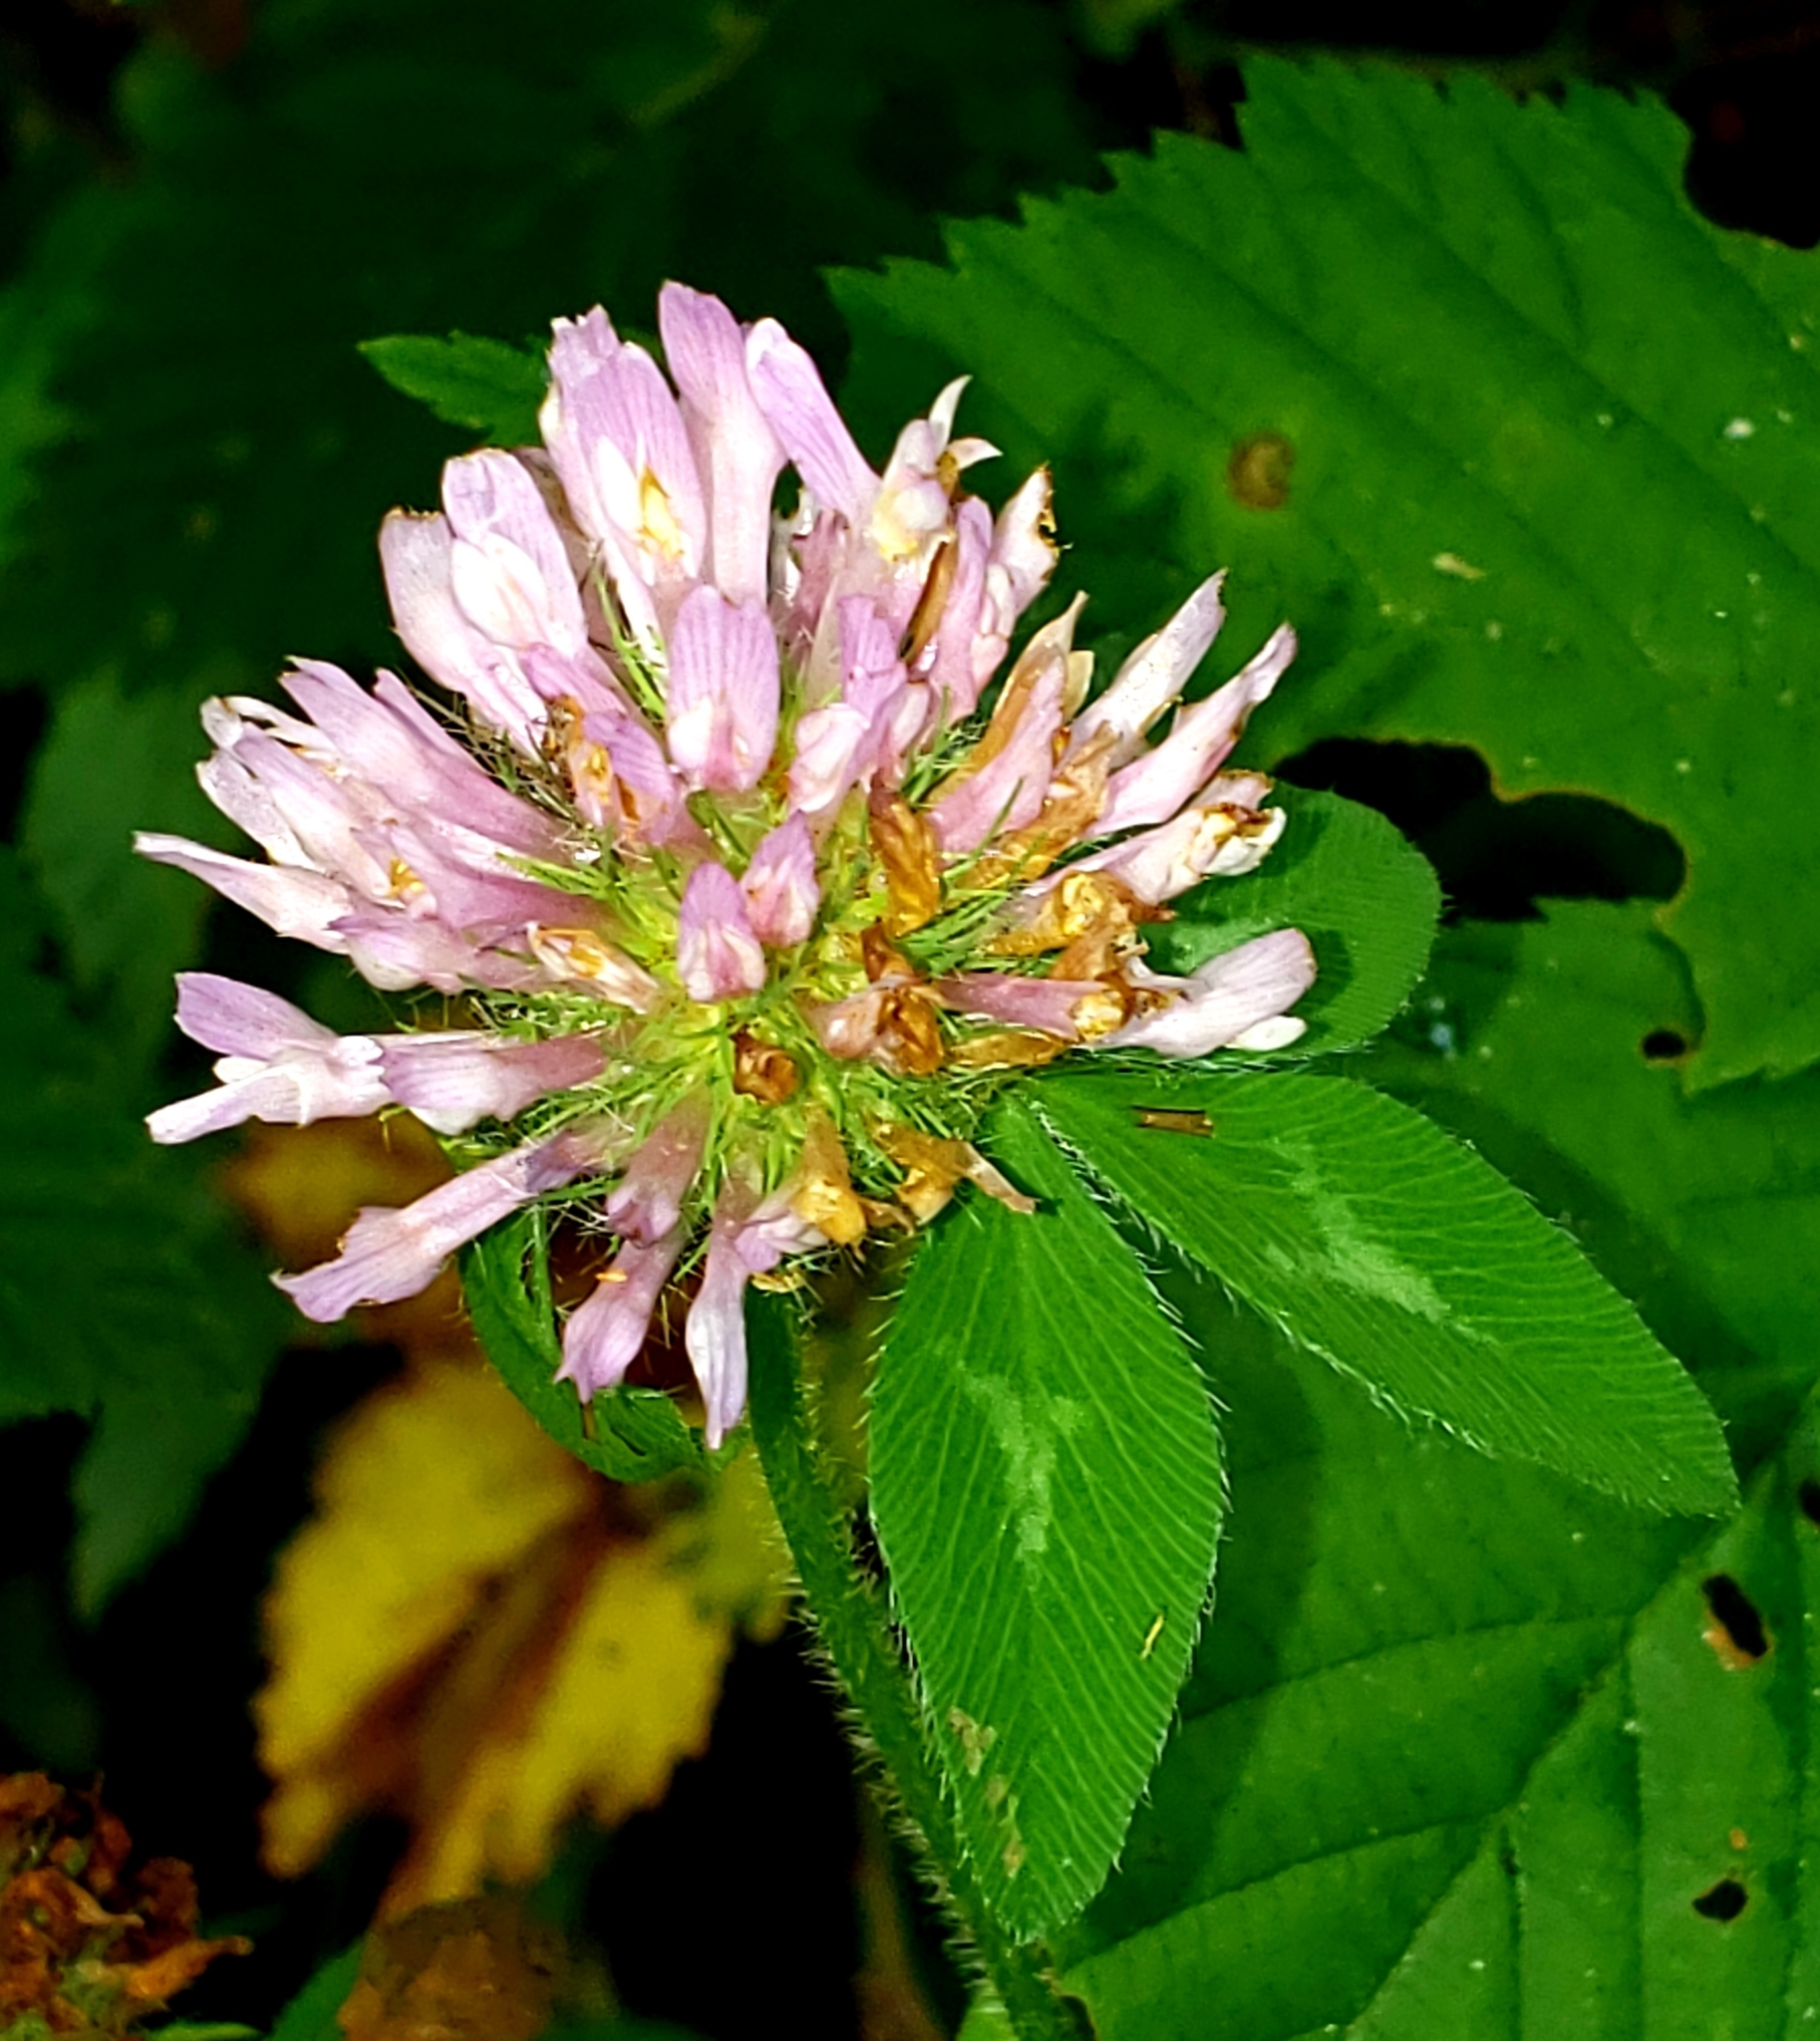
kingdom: Plantae
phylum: Tracheophyta
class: Magnoliopsida
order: Fabales
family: Fabaceae
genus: Trifolium
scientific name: Trifolium pratense
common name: Red clover
